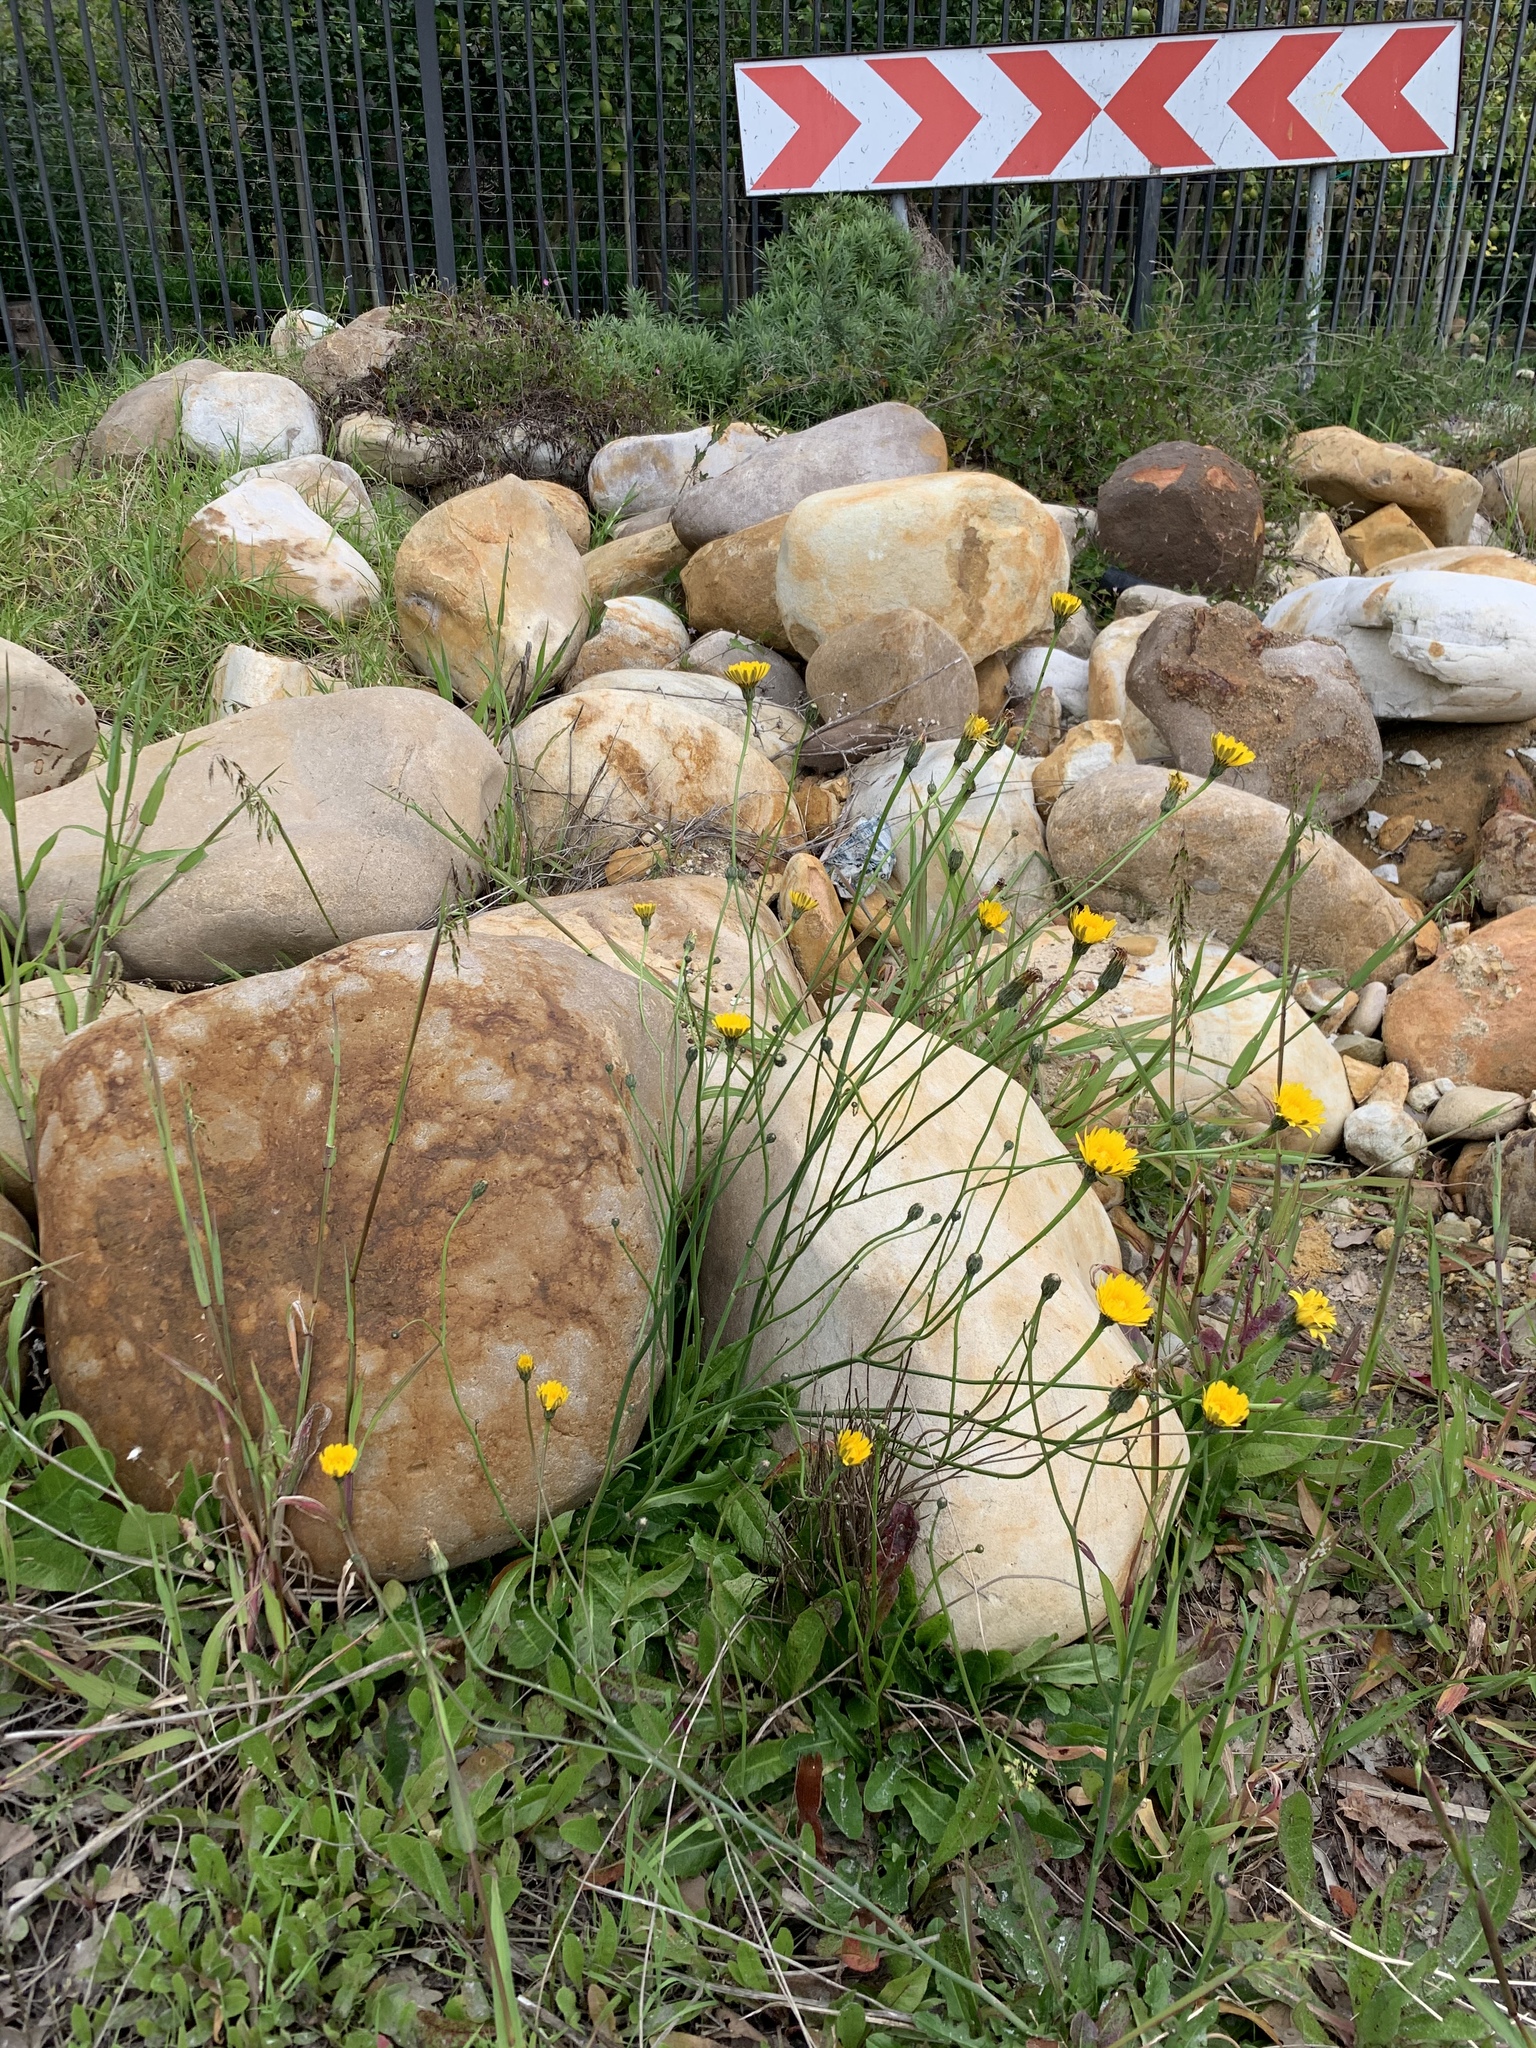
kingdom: Plantae
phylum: Tracheophyta
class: Magnoliopsida
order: Asterales
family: Asteraceae
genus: Hypochaeris
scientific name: Hypochaeris radicata
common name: Flatweed
